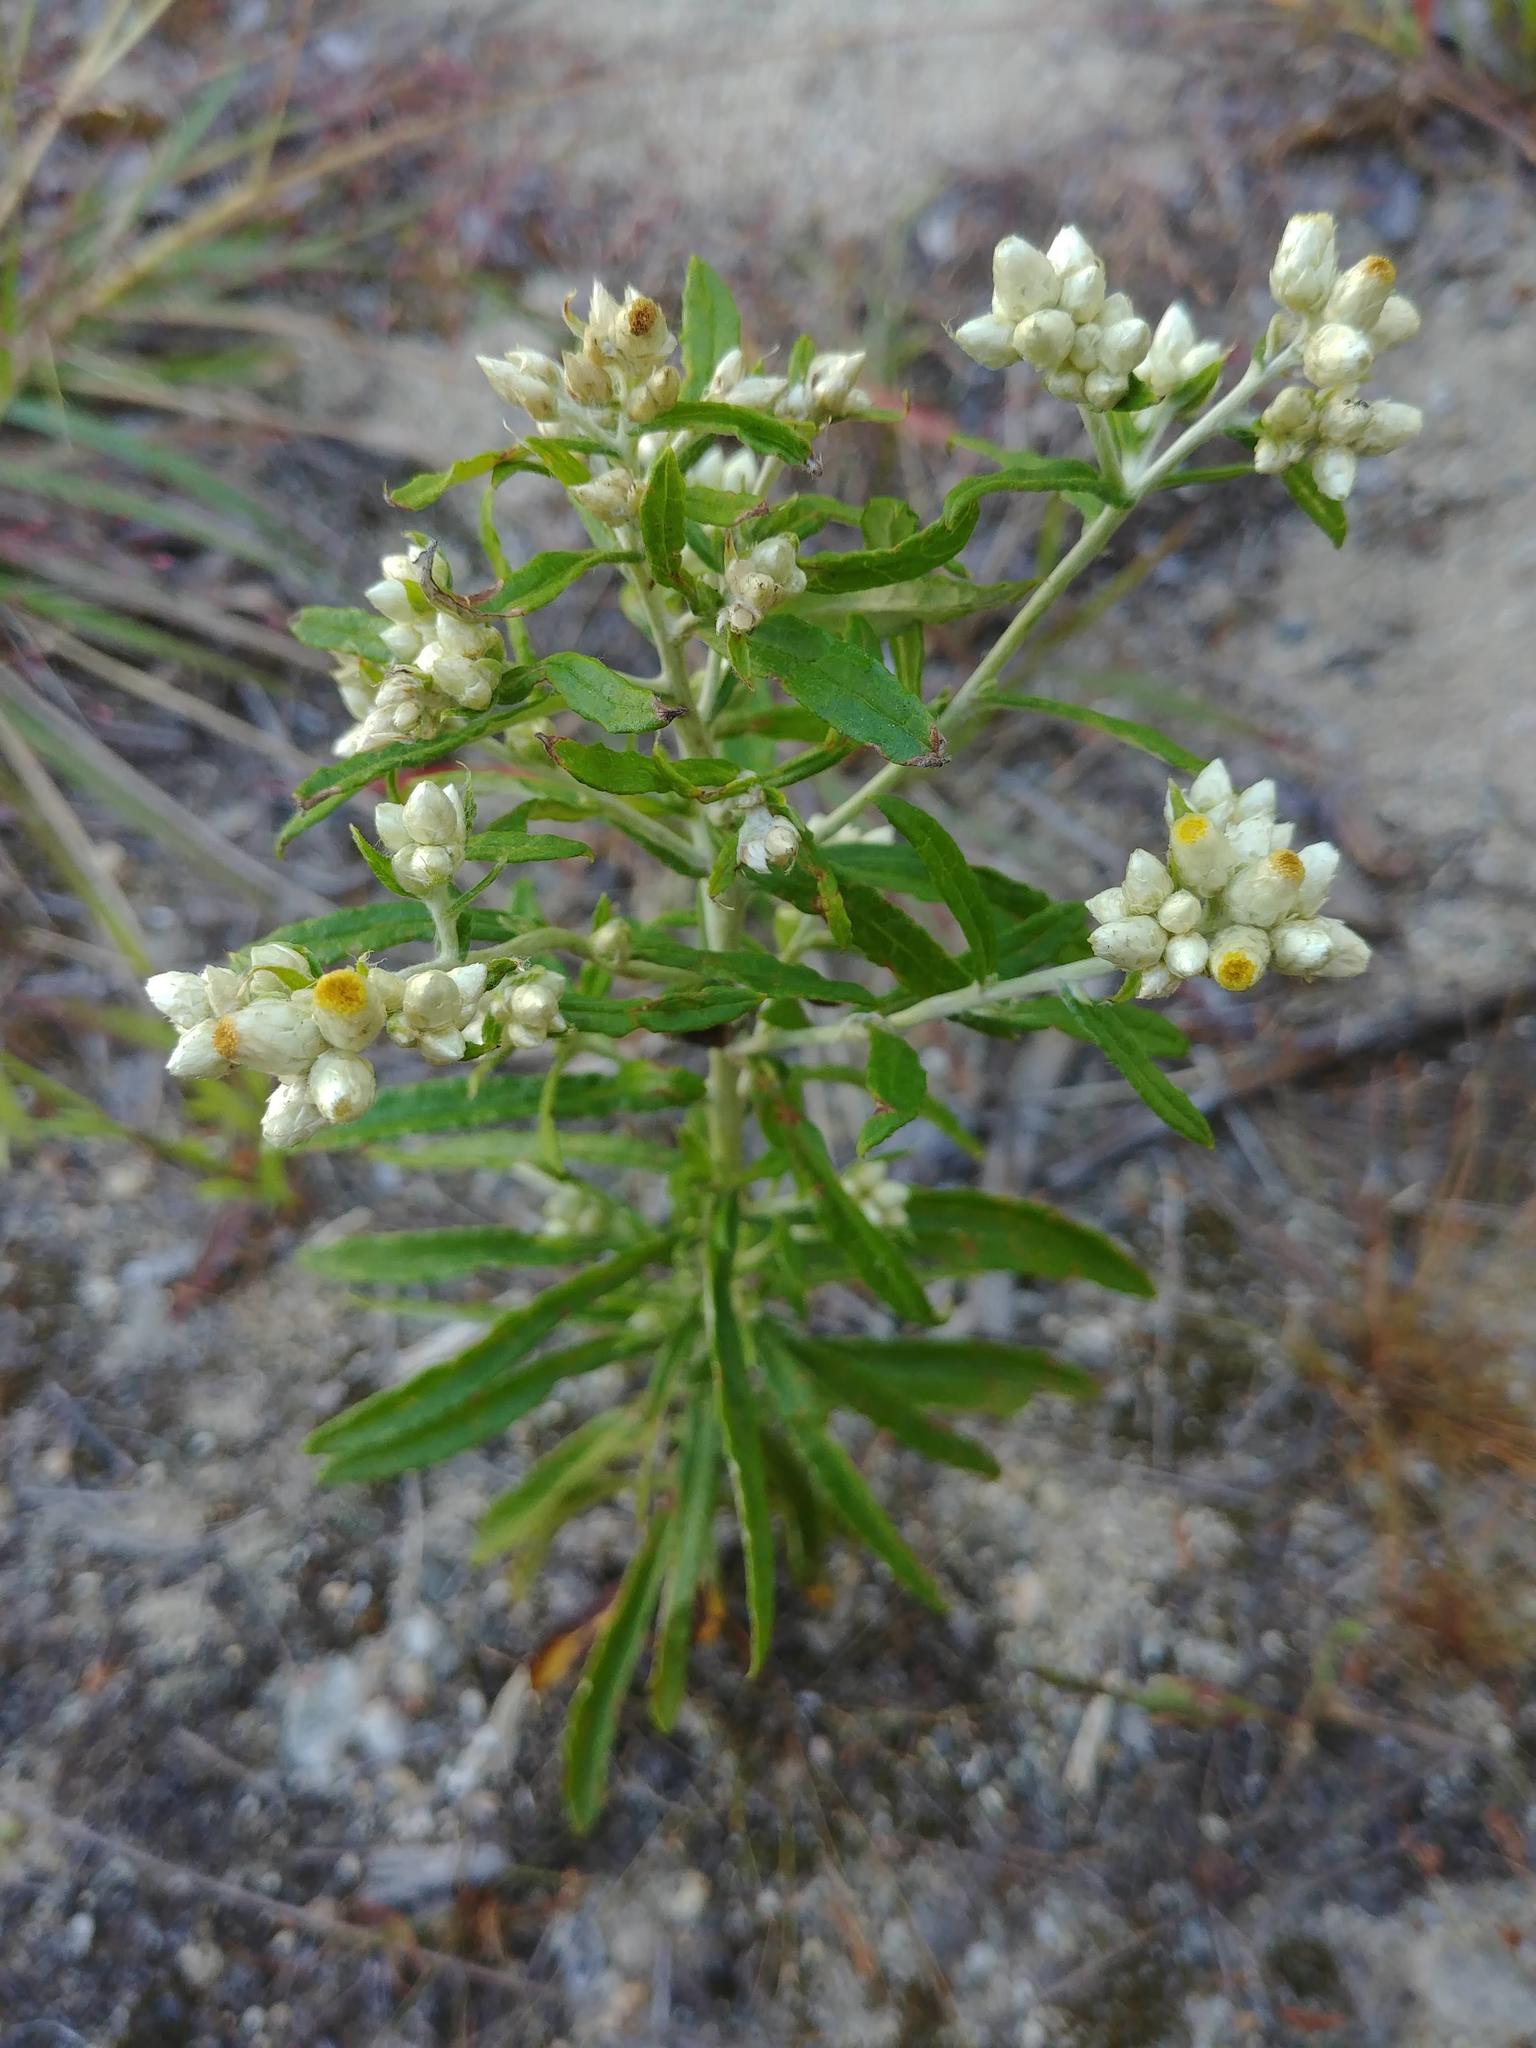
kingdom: Plantae
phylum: Tracheophyta
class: Magnoliopsida
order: Asterales
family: Asteraceae
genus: Pseudognaphalium
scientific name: Pseudognaphalium obtusifolium
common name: Eastern rabbit-tobacco
